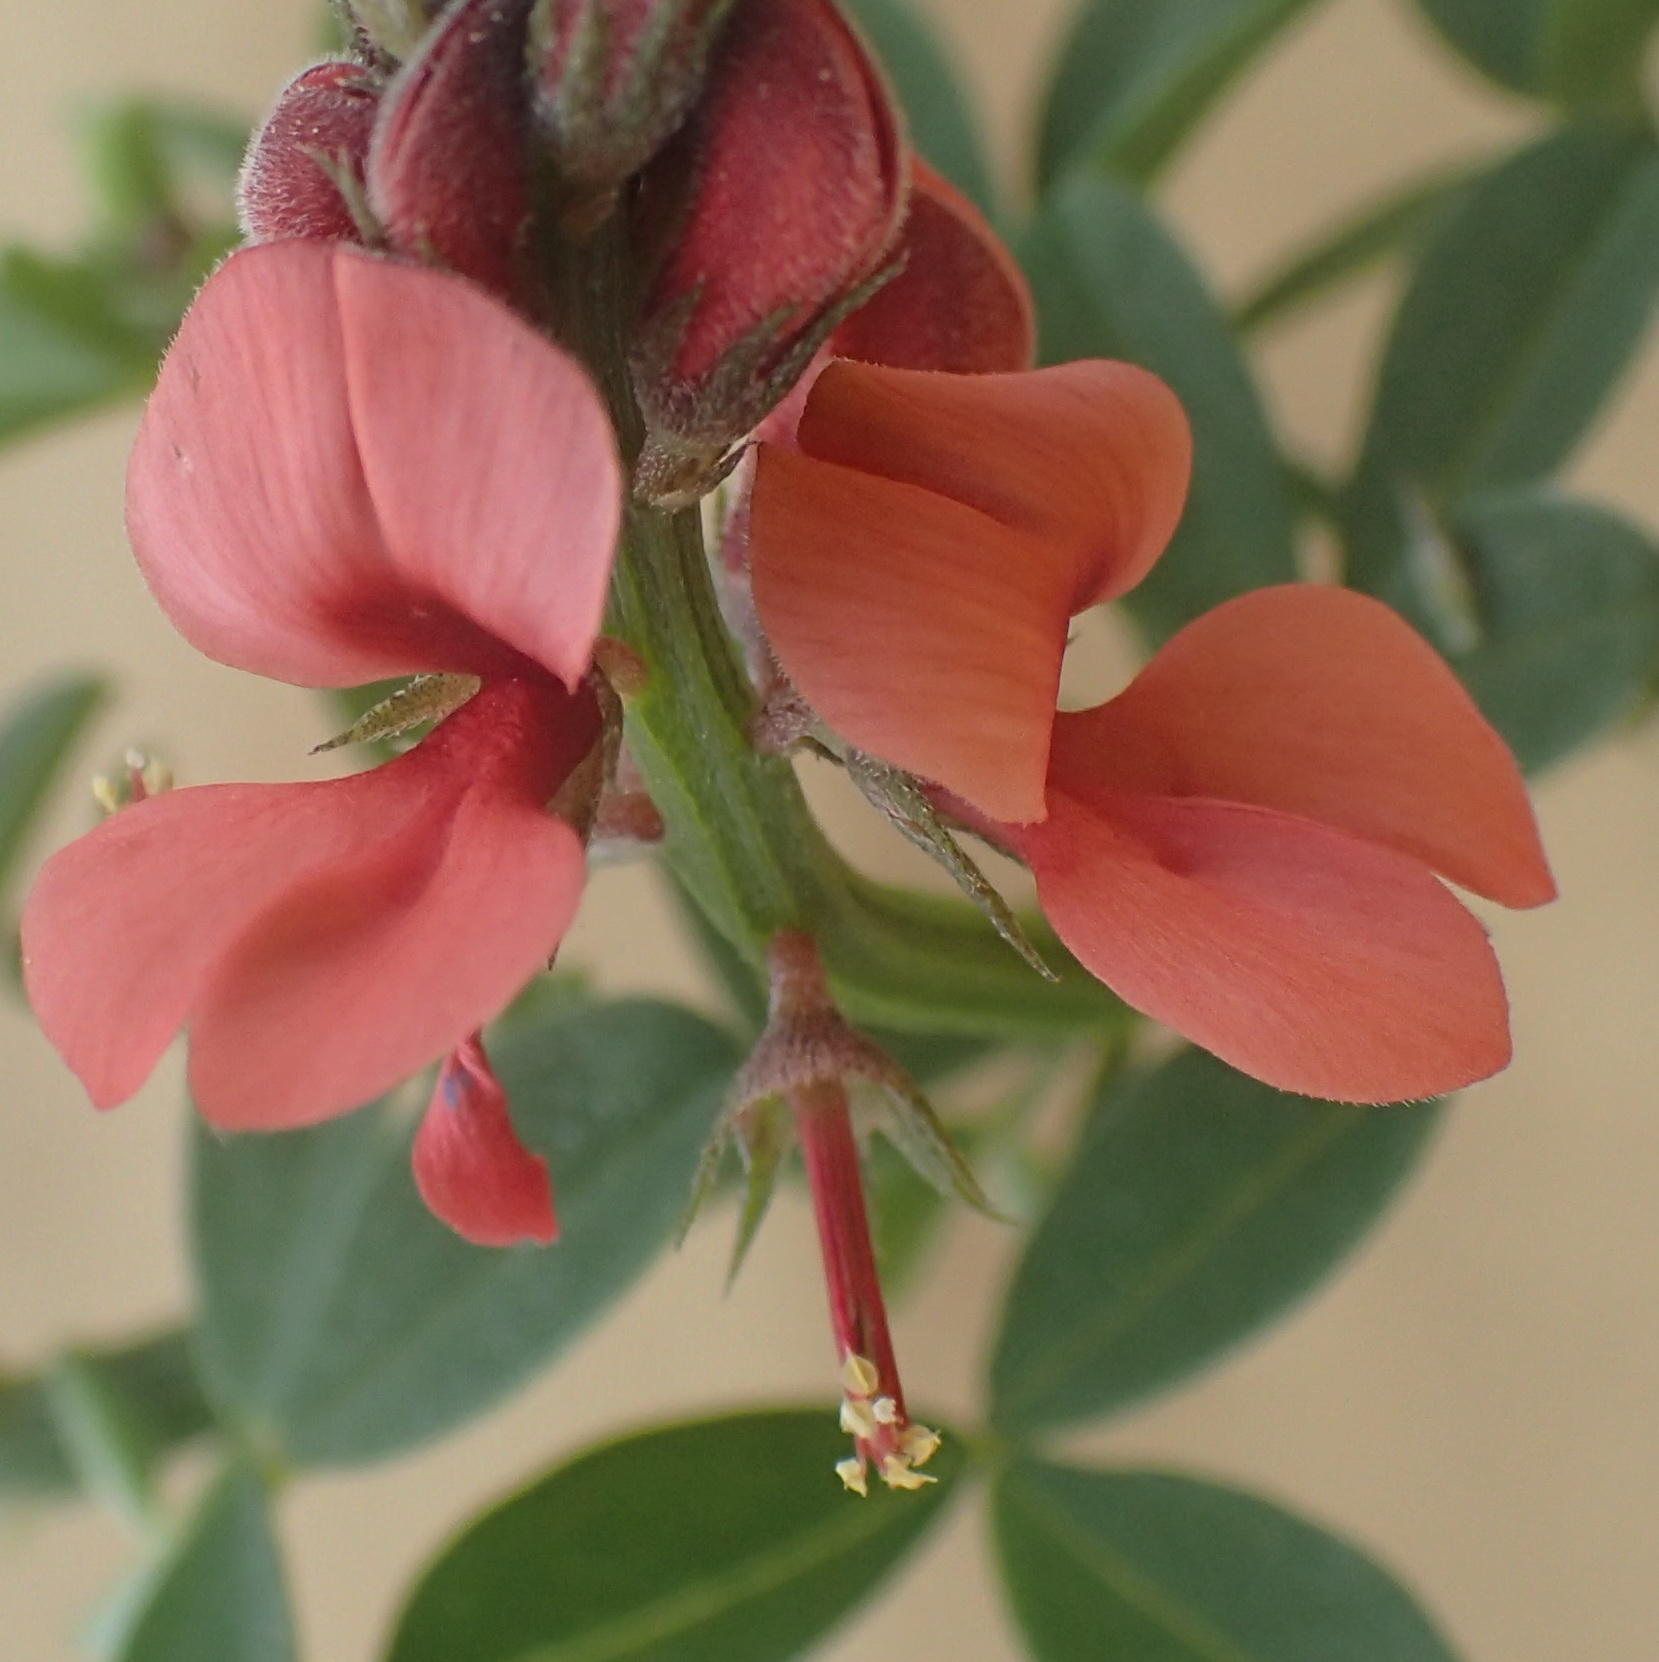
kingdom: Plantae
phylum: Tracheophyta
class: Magnoliopsida
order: Fabales
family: Fabaceae
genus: Indigofera
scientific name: Indigofera porrecta
